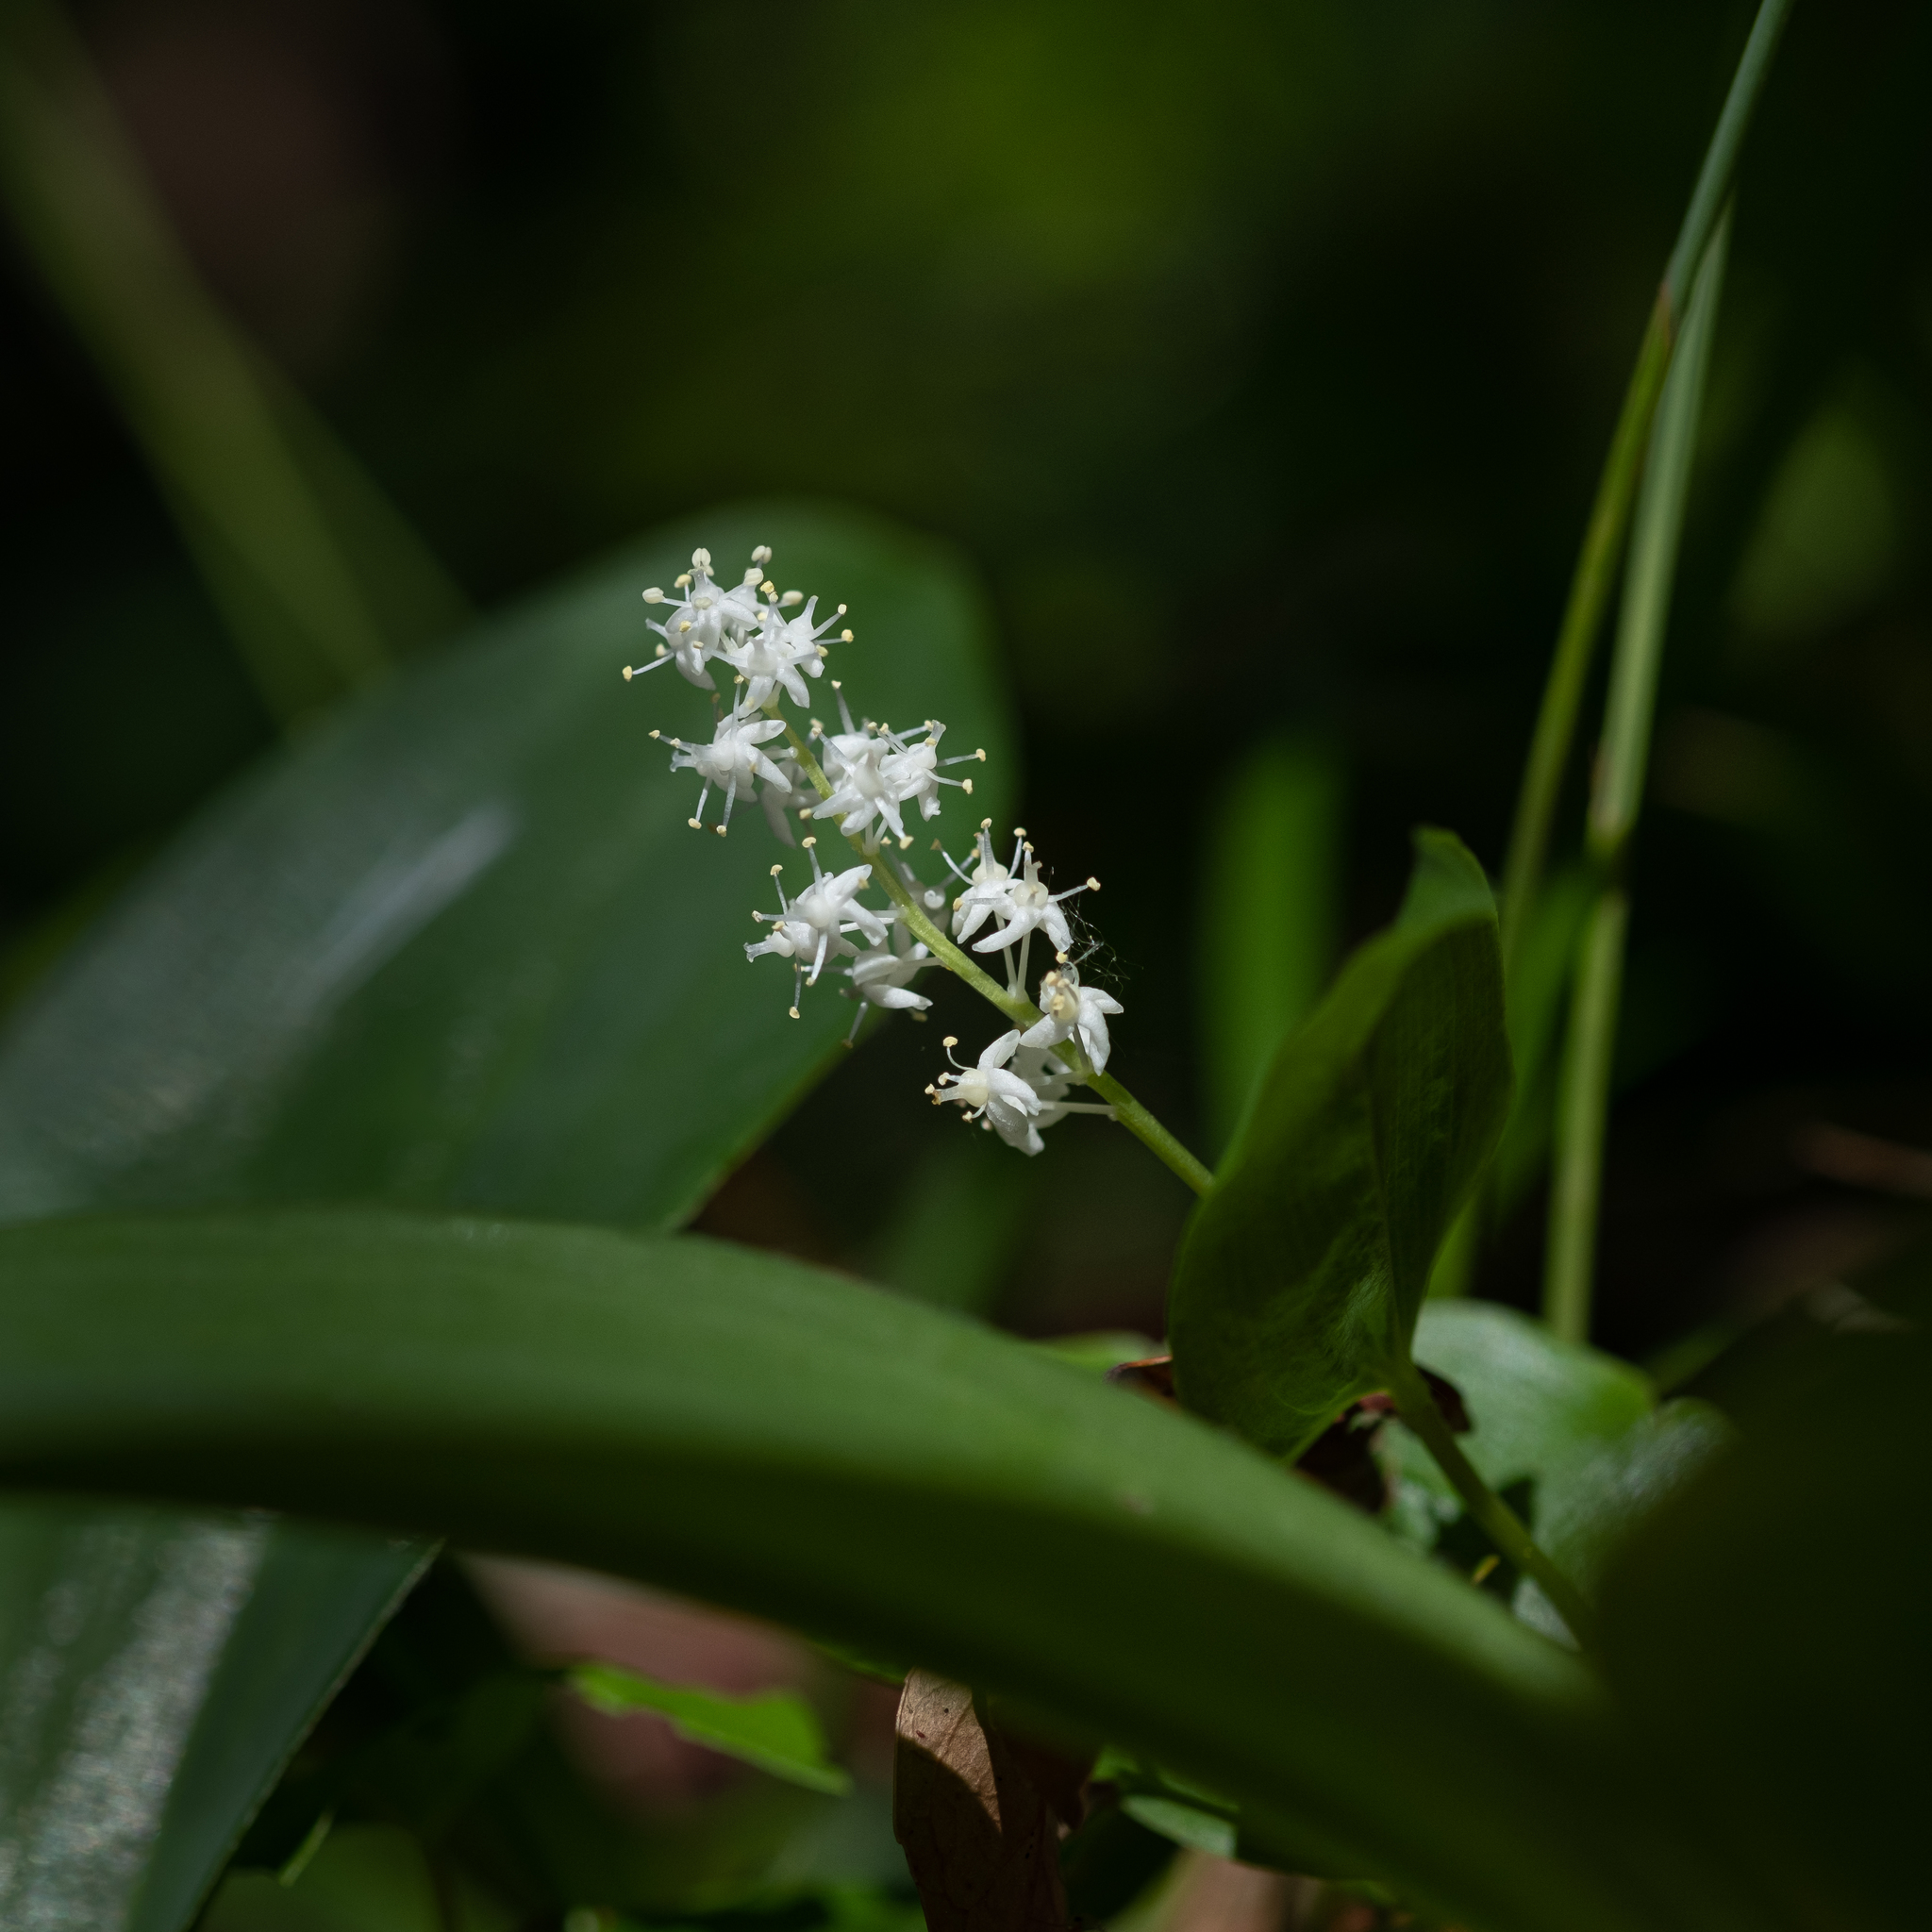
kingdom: Plantae
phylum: Tracheophyta
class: Liliopsida
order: Asparagales
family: Asparagaceae
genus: Maianthemum
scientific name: Maianthemum canadense
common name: False lily-of-the-valley
